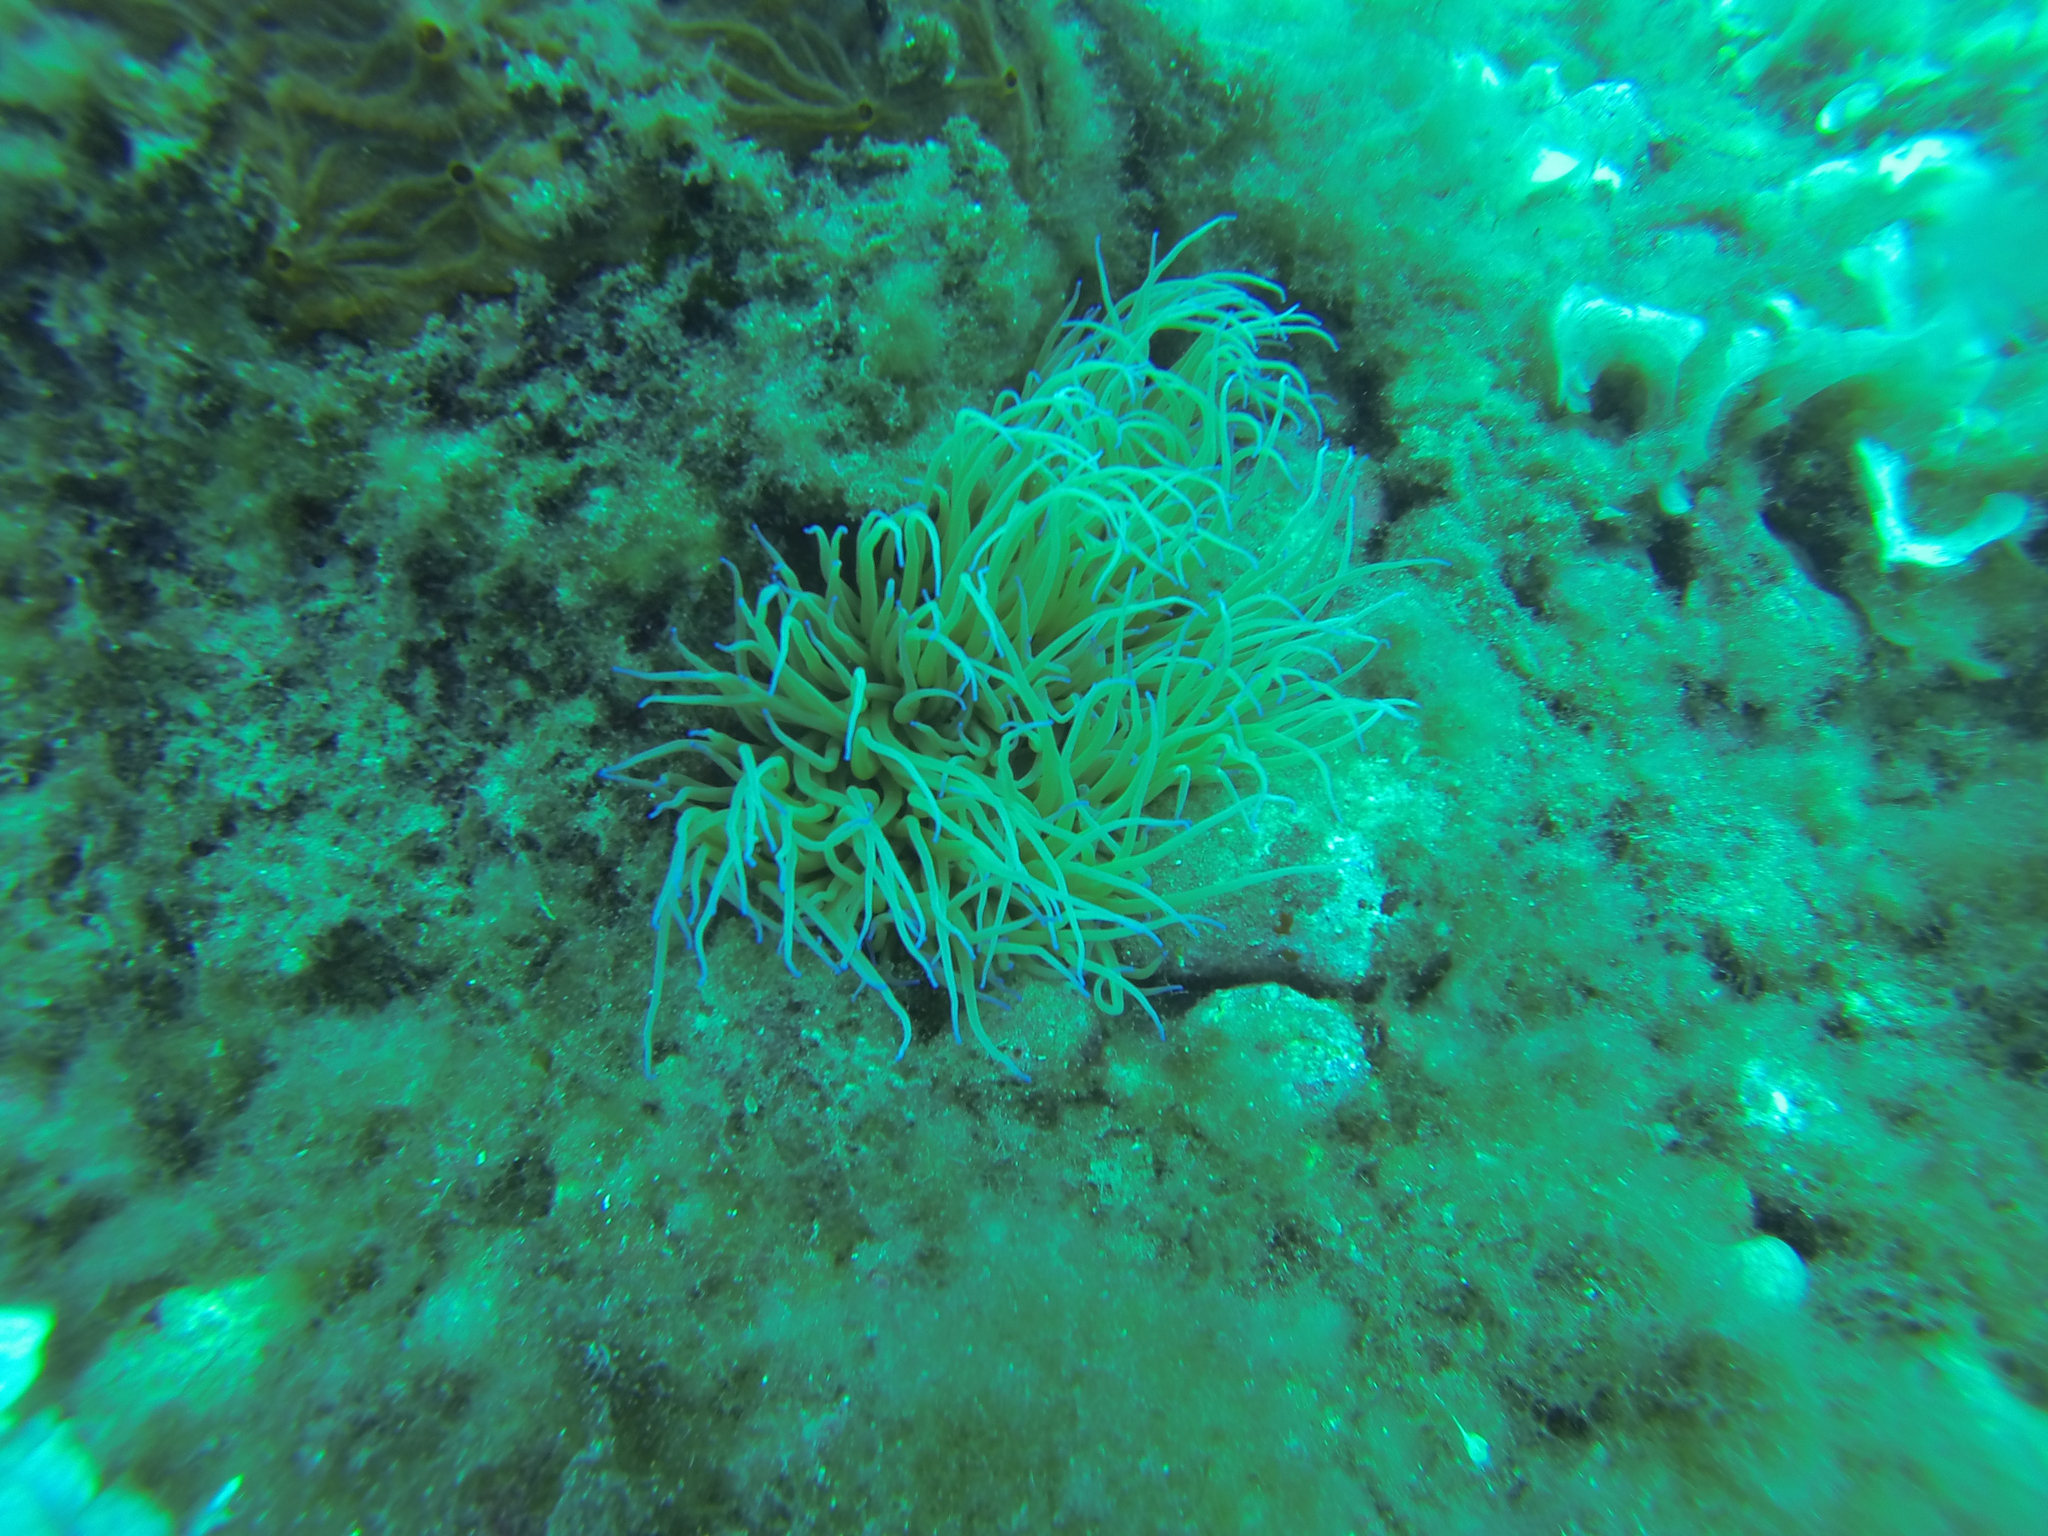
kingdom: Animalia
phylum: Cnidaria
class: Anthozoa
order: Actiniaria
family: Actiniidae
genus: Anemonia
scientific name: Anemonia viridis
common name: Snakelocks anemone
